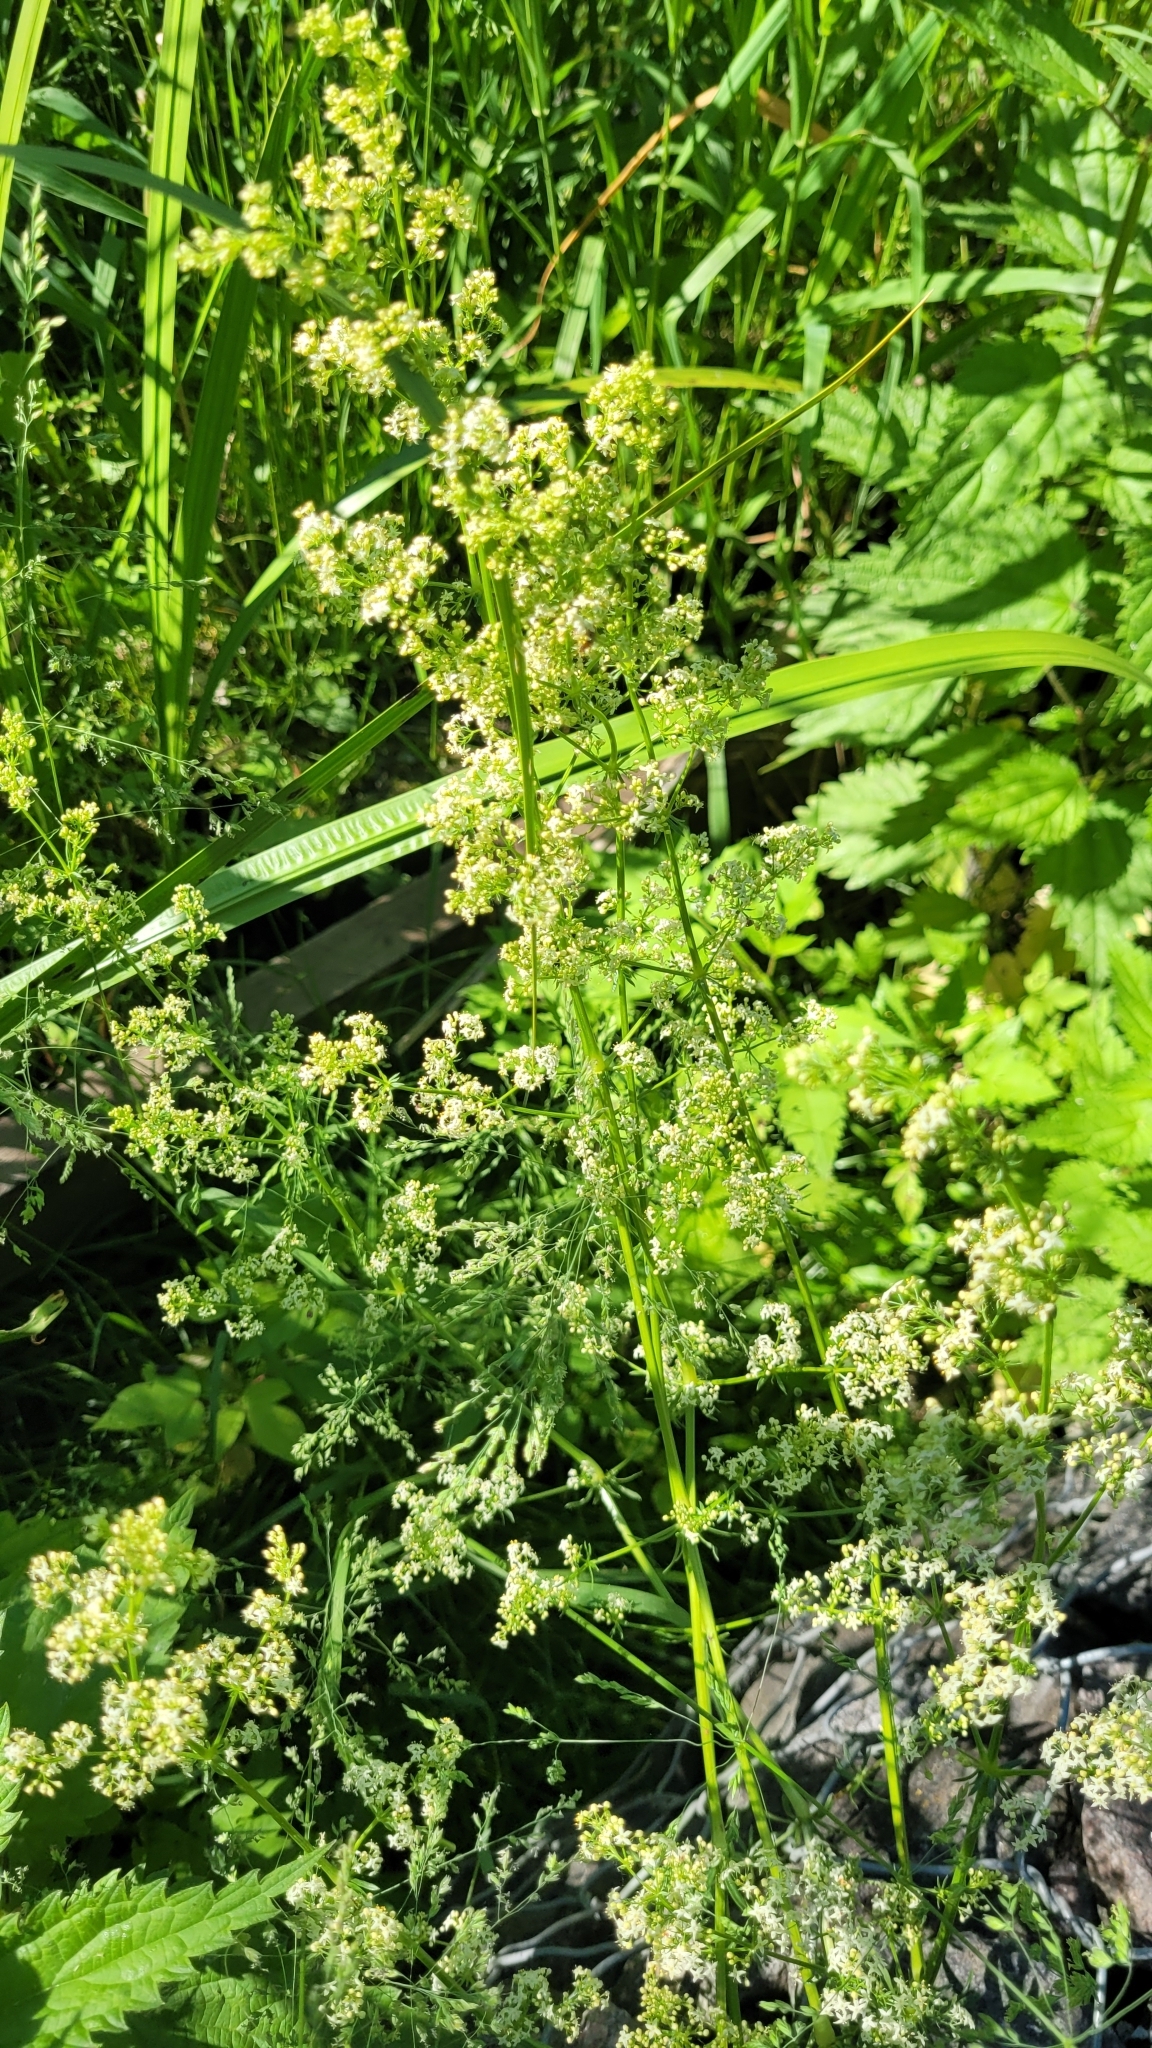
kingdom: Plantae
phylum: Tracheophyta
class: Magnoliopsida
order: Gentianales
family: Rubiaceae
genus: Galium
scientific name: Galium mollugo
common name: Hedge bedstraw
